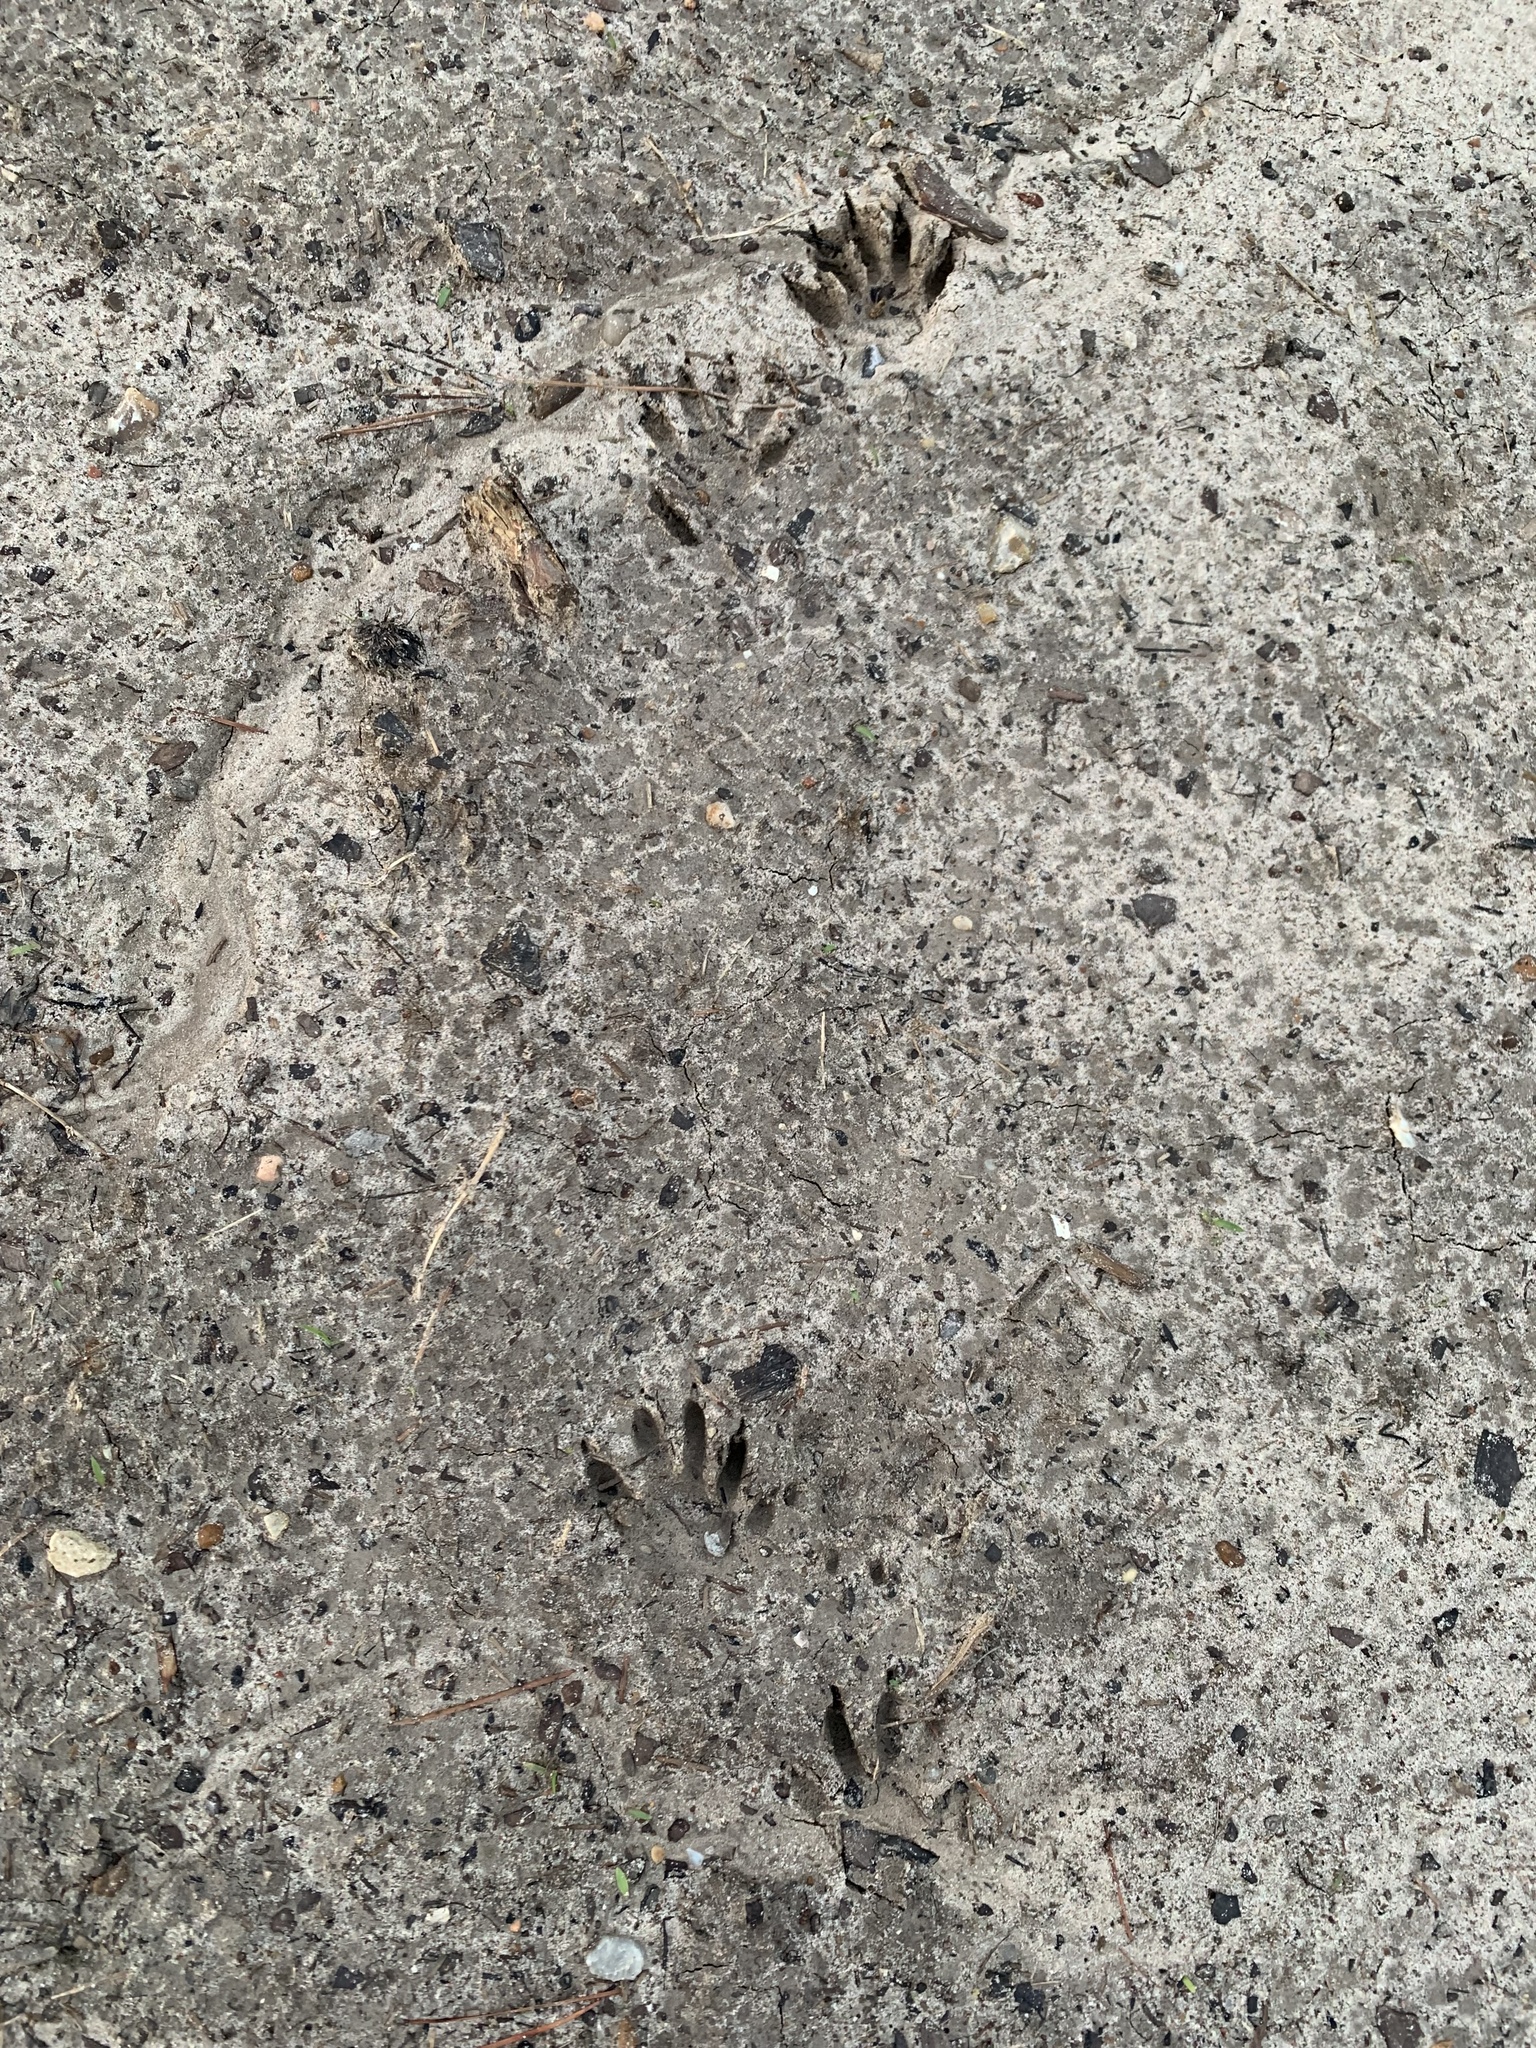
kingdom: Animalia
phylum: Chordata
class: Mammalia
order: Carnivora
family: Procyonidae
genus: Procyon
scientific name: Procyon lotor
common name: Raccoon
